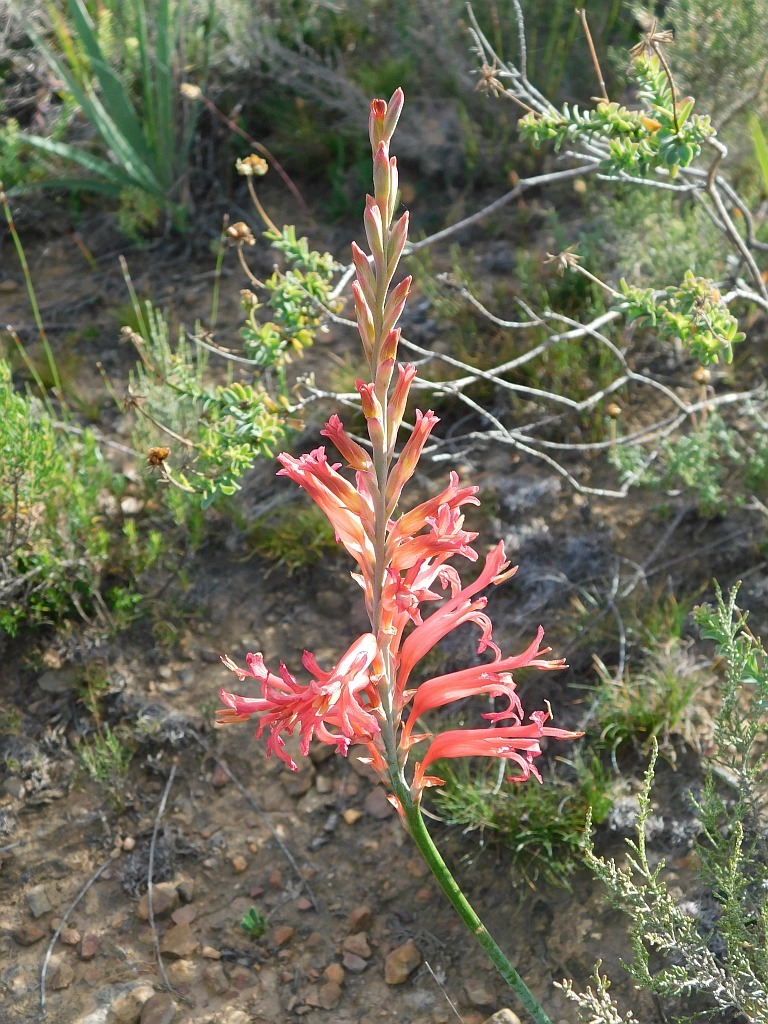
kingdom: Plantae
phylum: Tracheophyta
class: Liliopsida
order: Asparagales
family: Iridaceae
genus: Tritoniopsis
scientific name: Tritoniopsis antholyza
